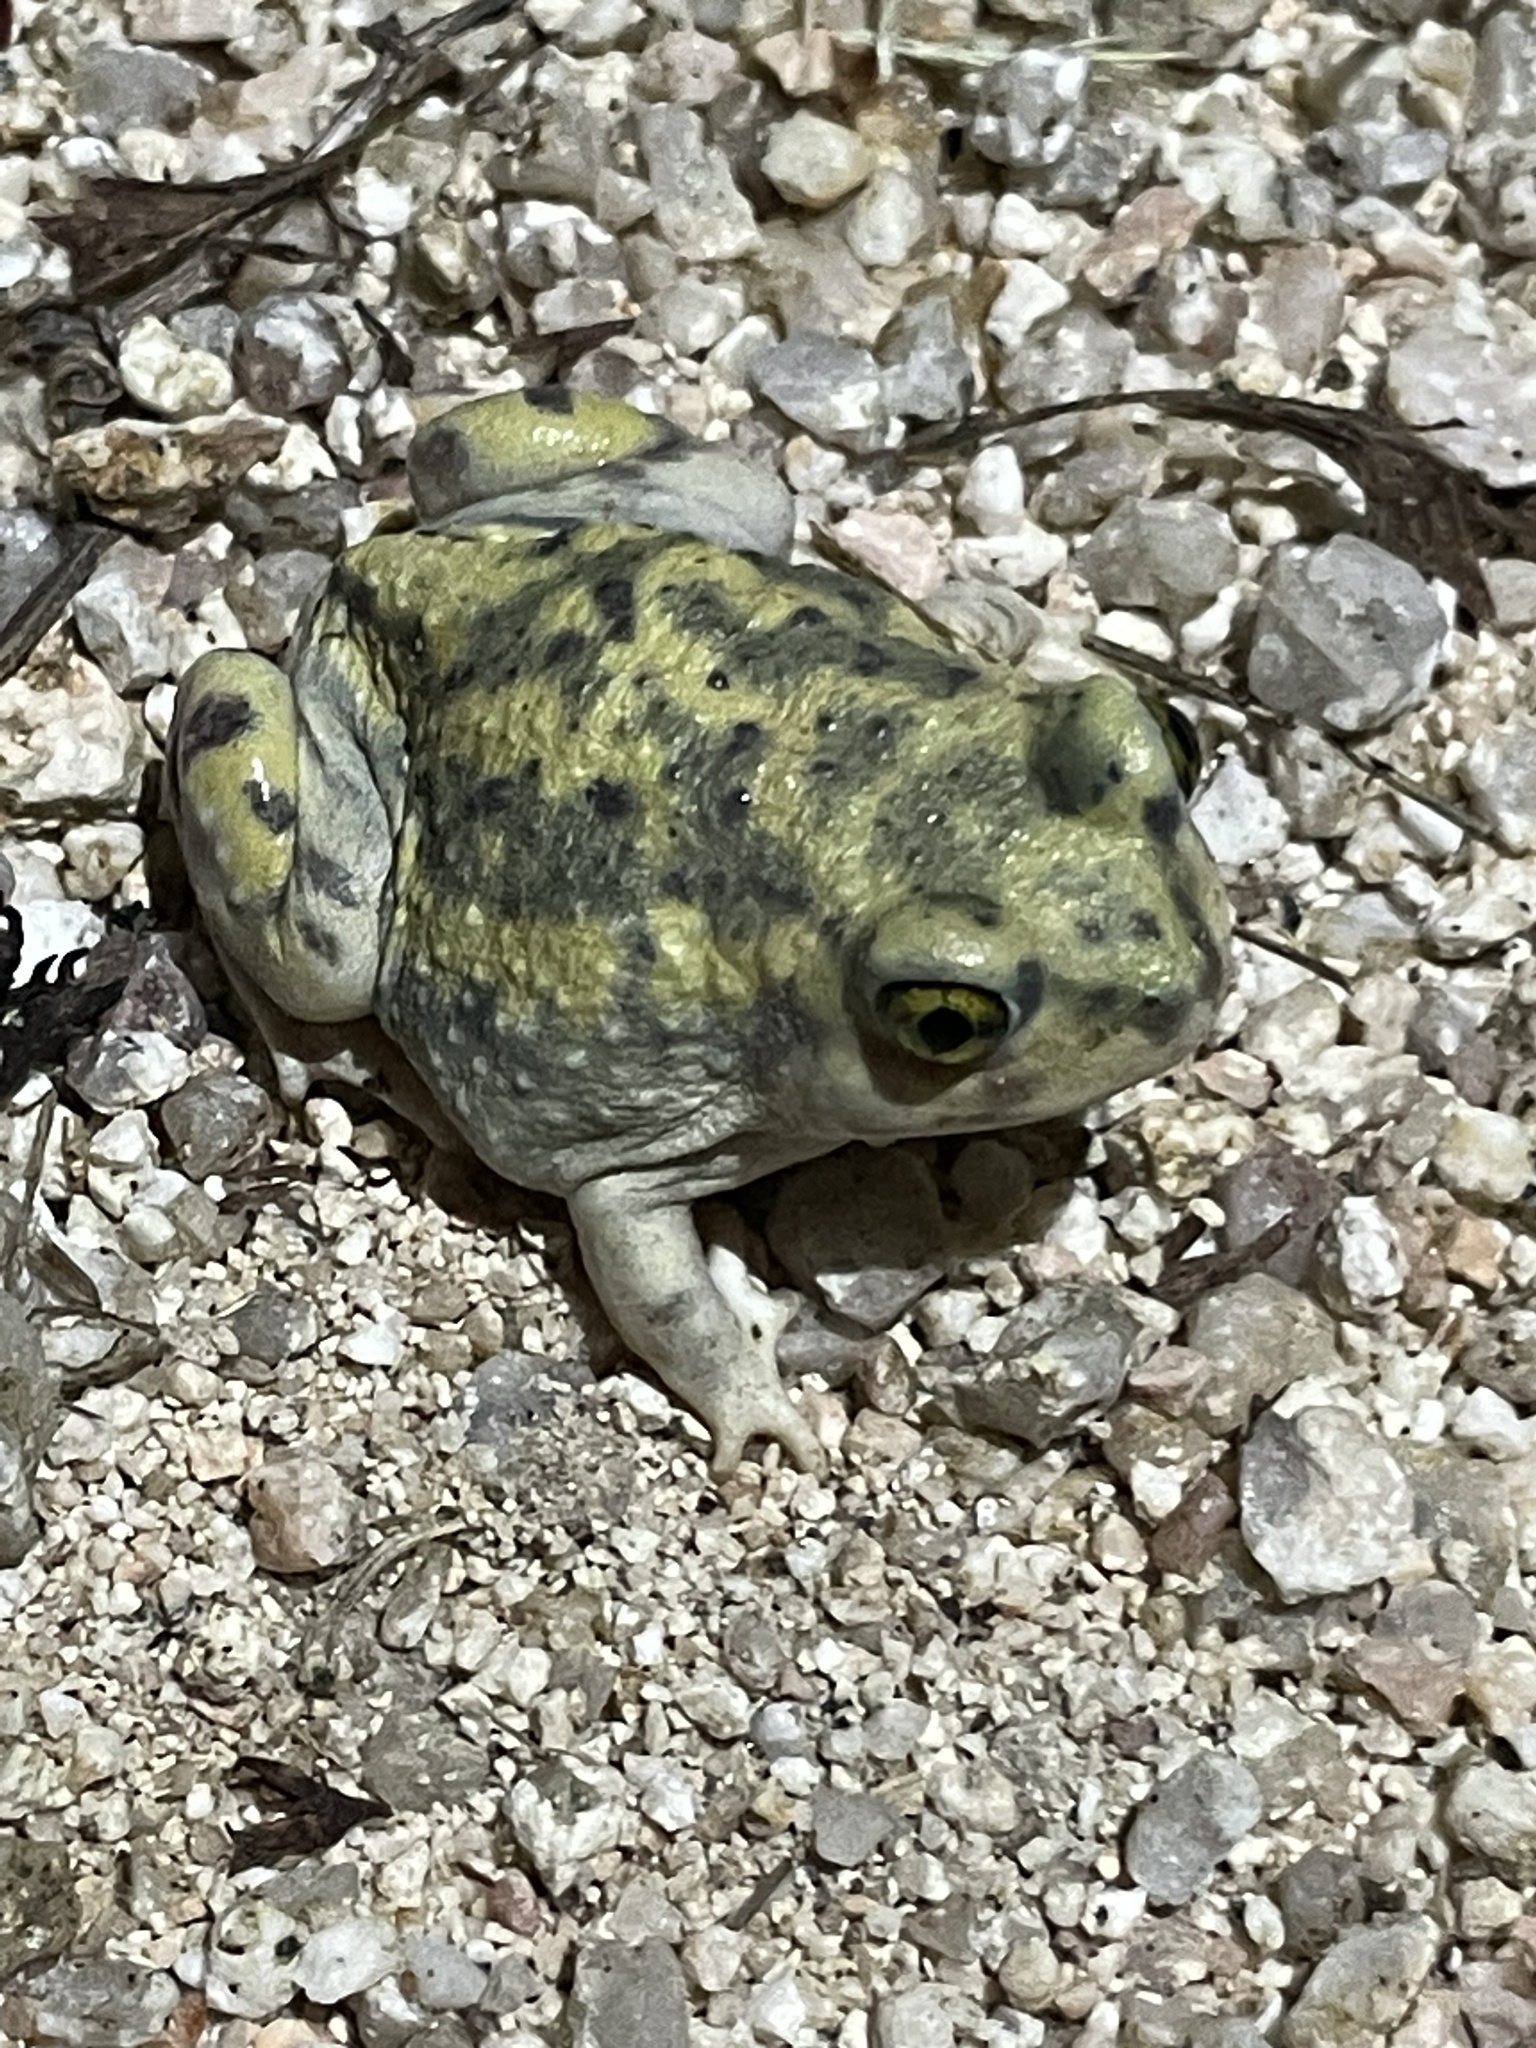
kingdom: Animalia
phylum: Chordata
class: Amphibia
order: Anura
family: Scaphiopodidae
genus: Scaphiopus
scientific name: Scaphiopus couchii
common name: Couch's spadefoot toad
